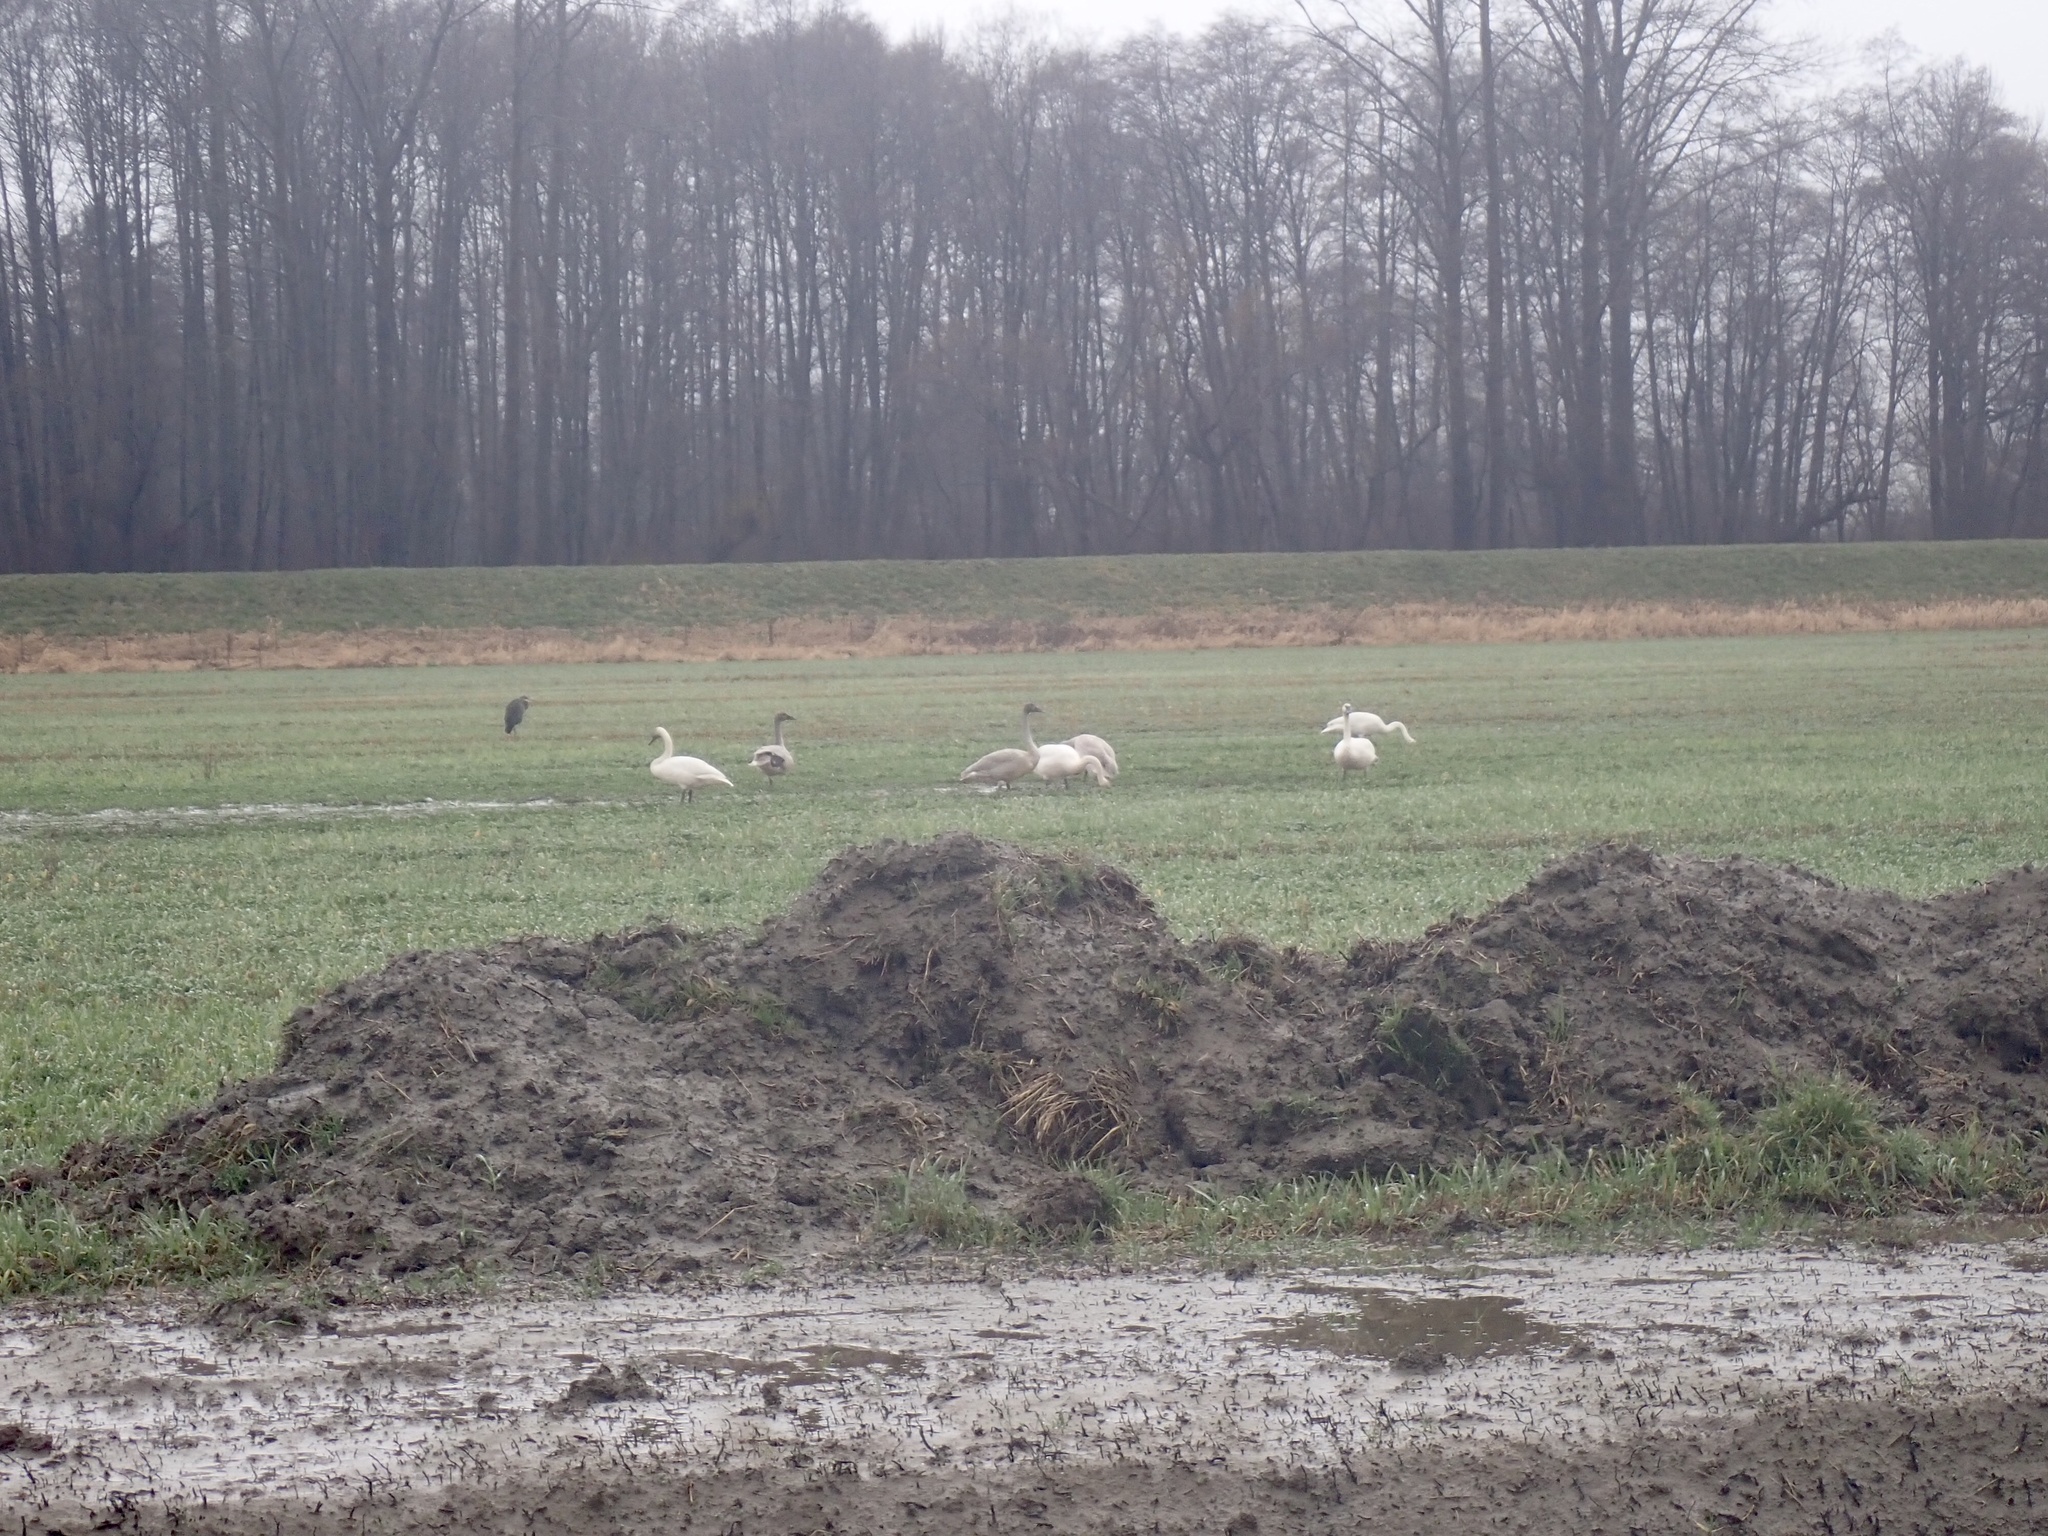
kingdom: Animalia
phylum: Chordata
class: Aves
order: Pelecaniformes
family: Ardeidae
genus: Ardea
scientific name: Ardea herodias
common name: Great blue heron
